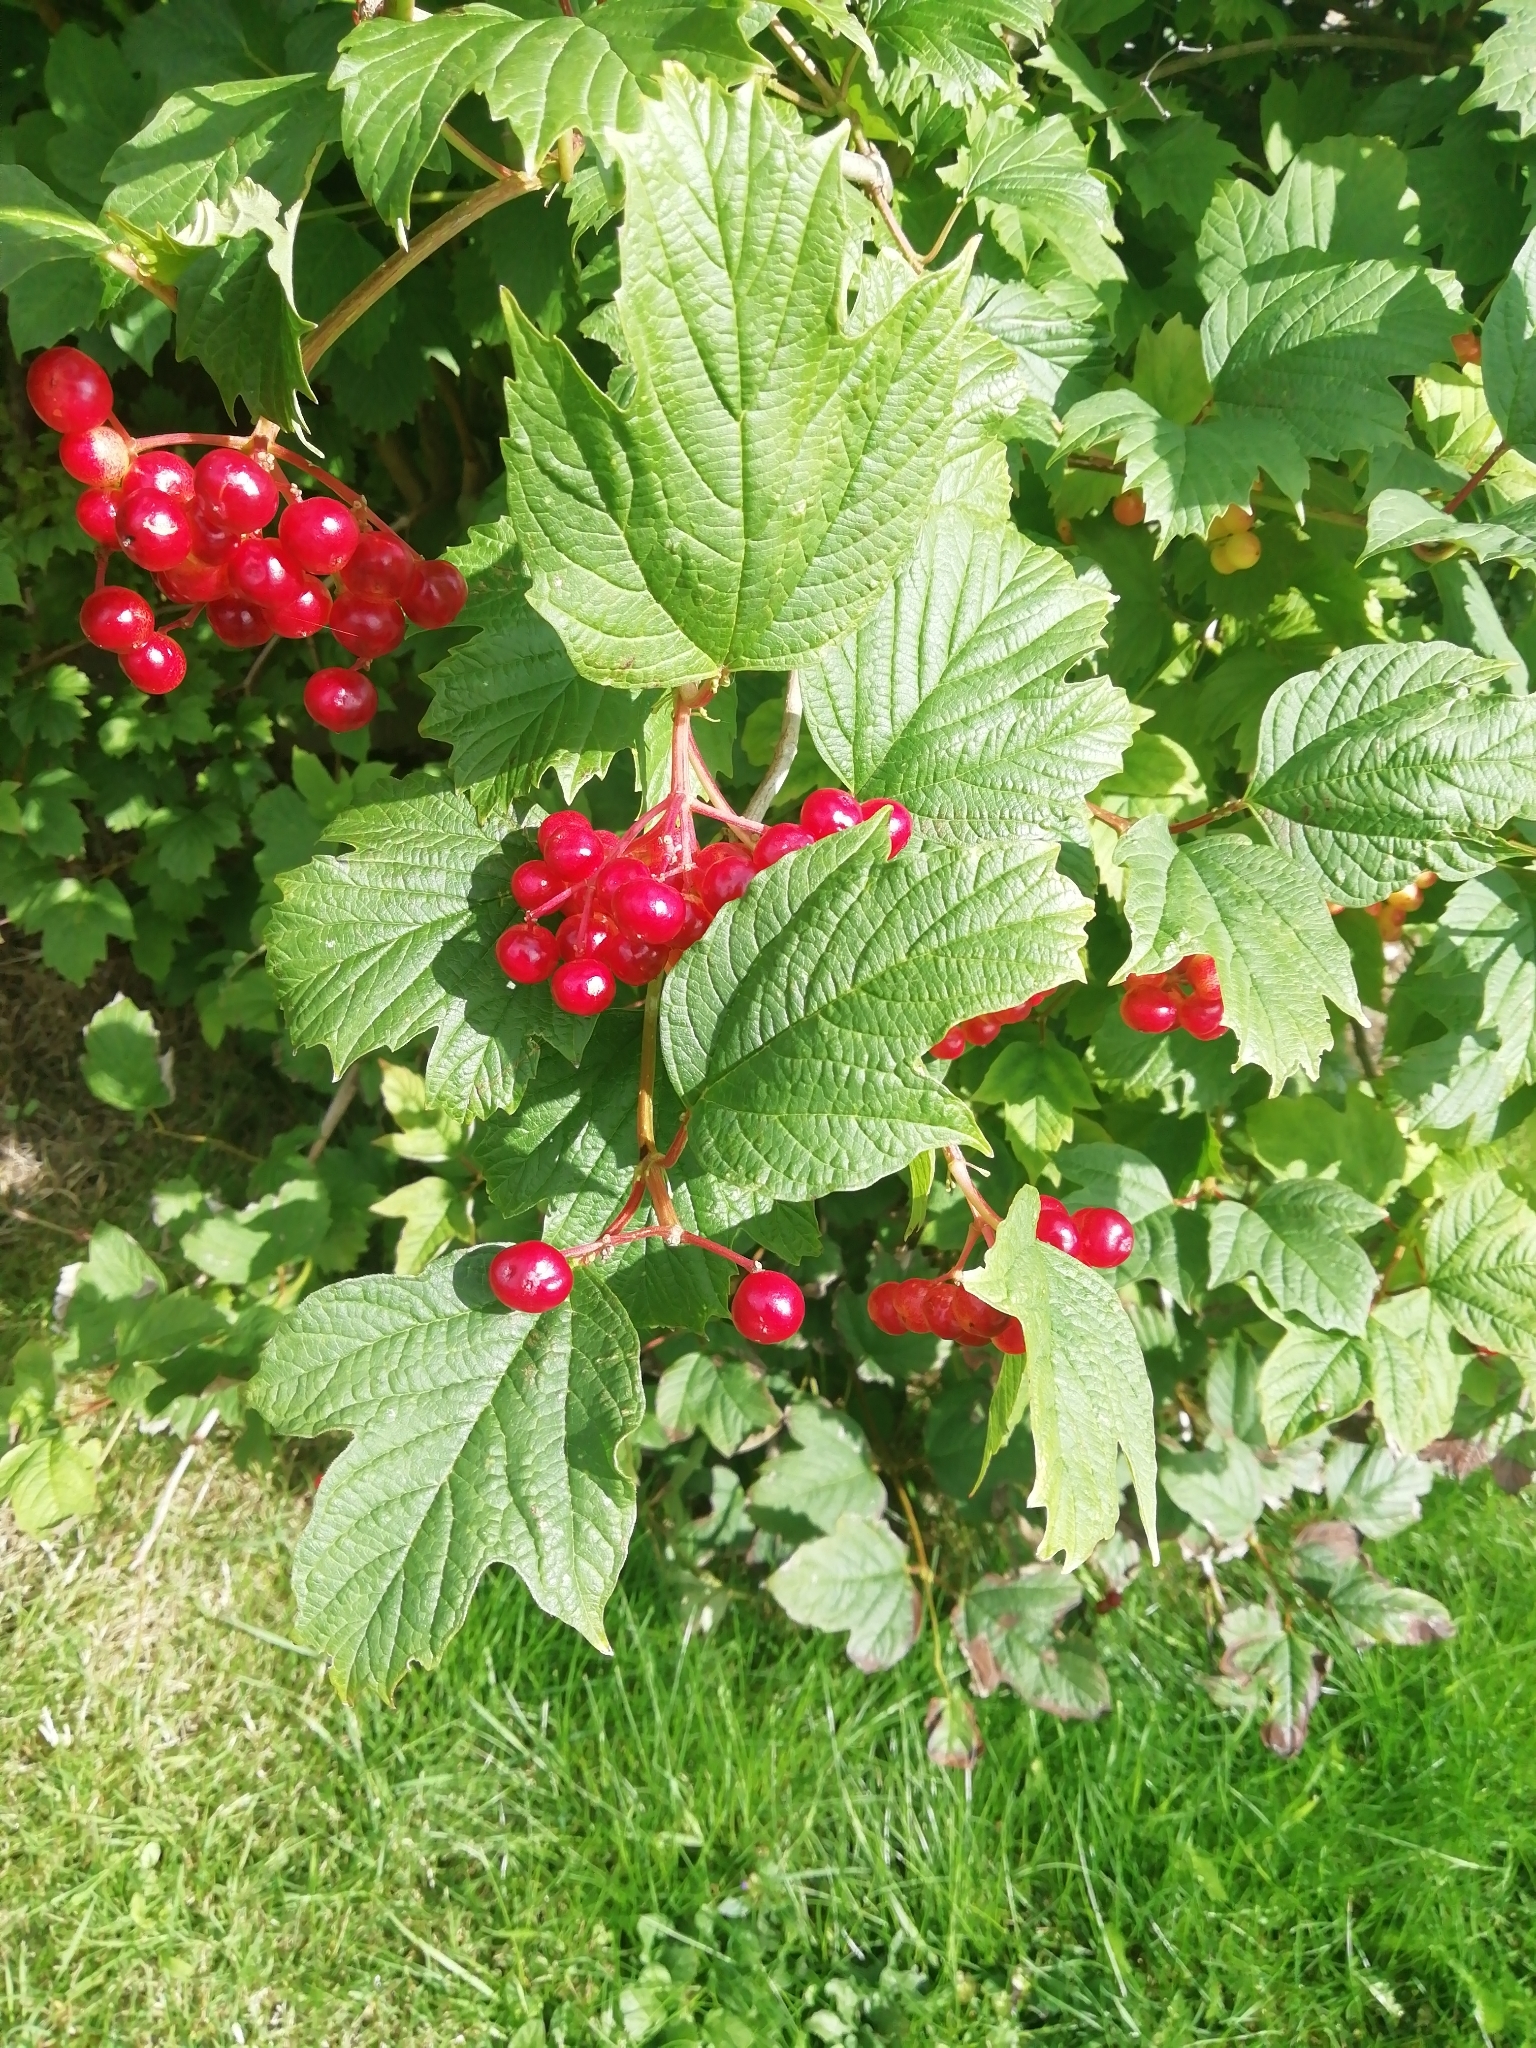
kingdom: Plantae
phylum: Tracheophyta
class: Magnoliopsida
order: Dipsacales
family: Viburnaceae
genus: Viburnum
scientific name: Viburnum opulus
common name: Guelder-rose
